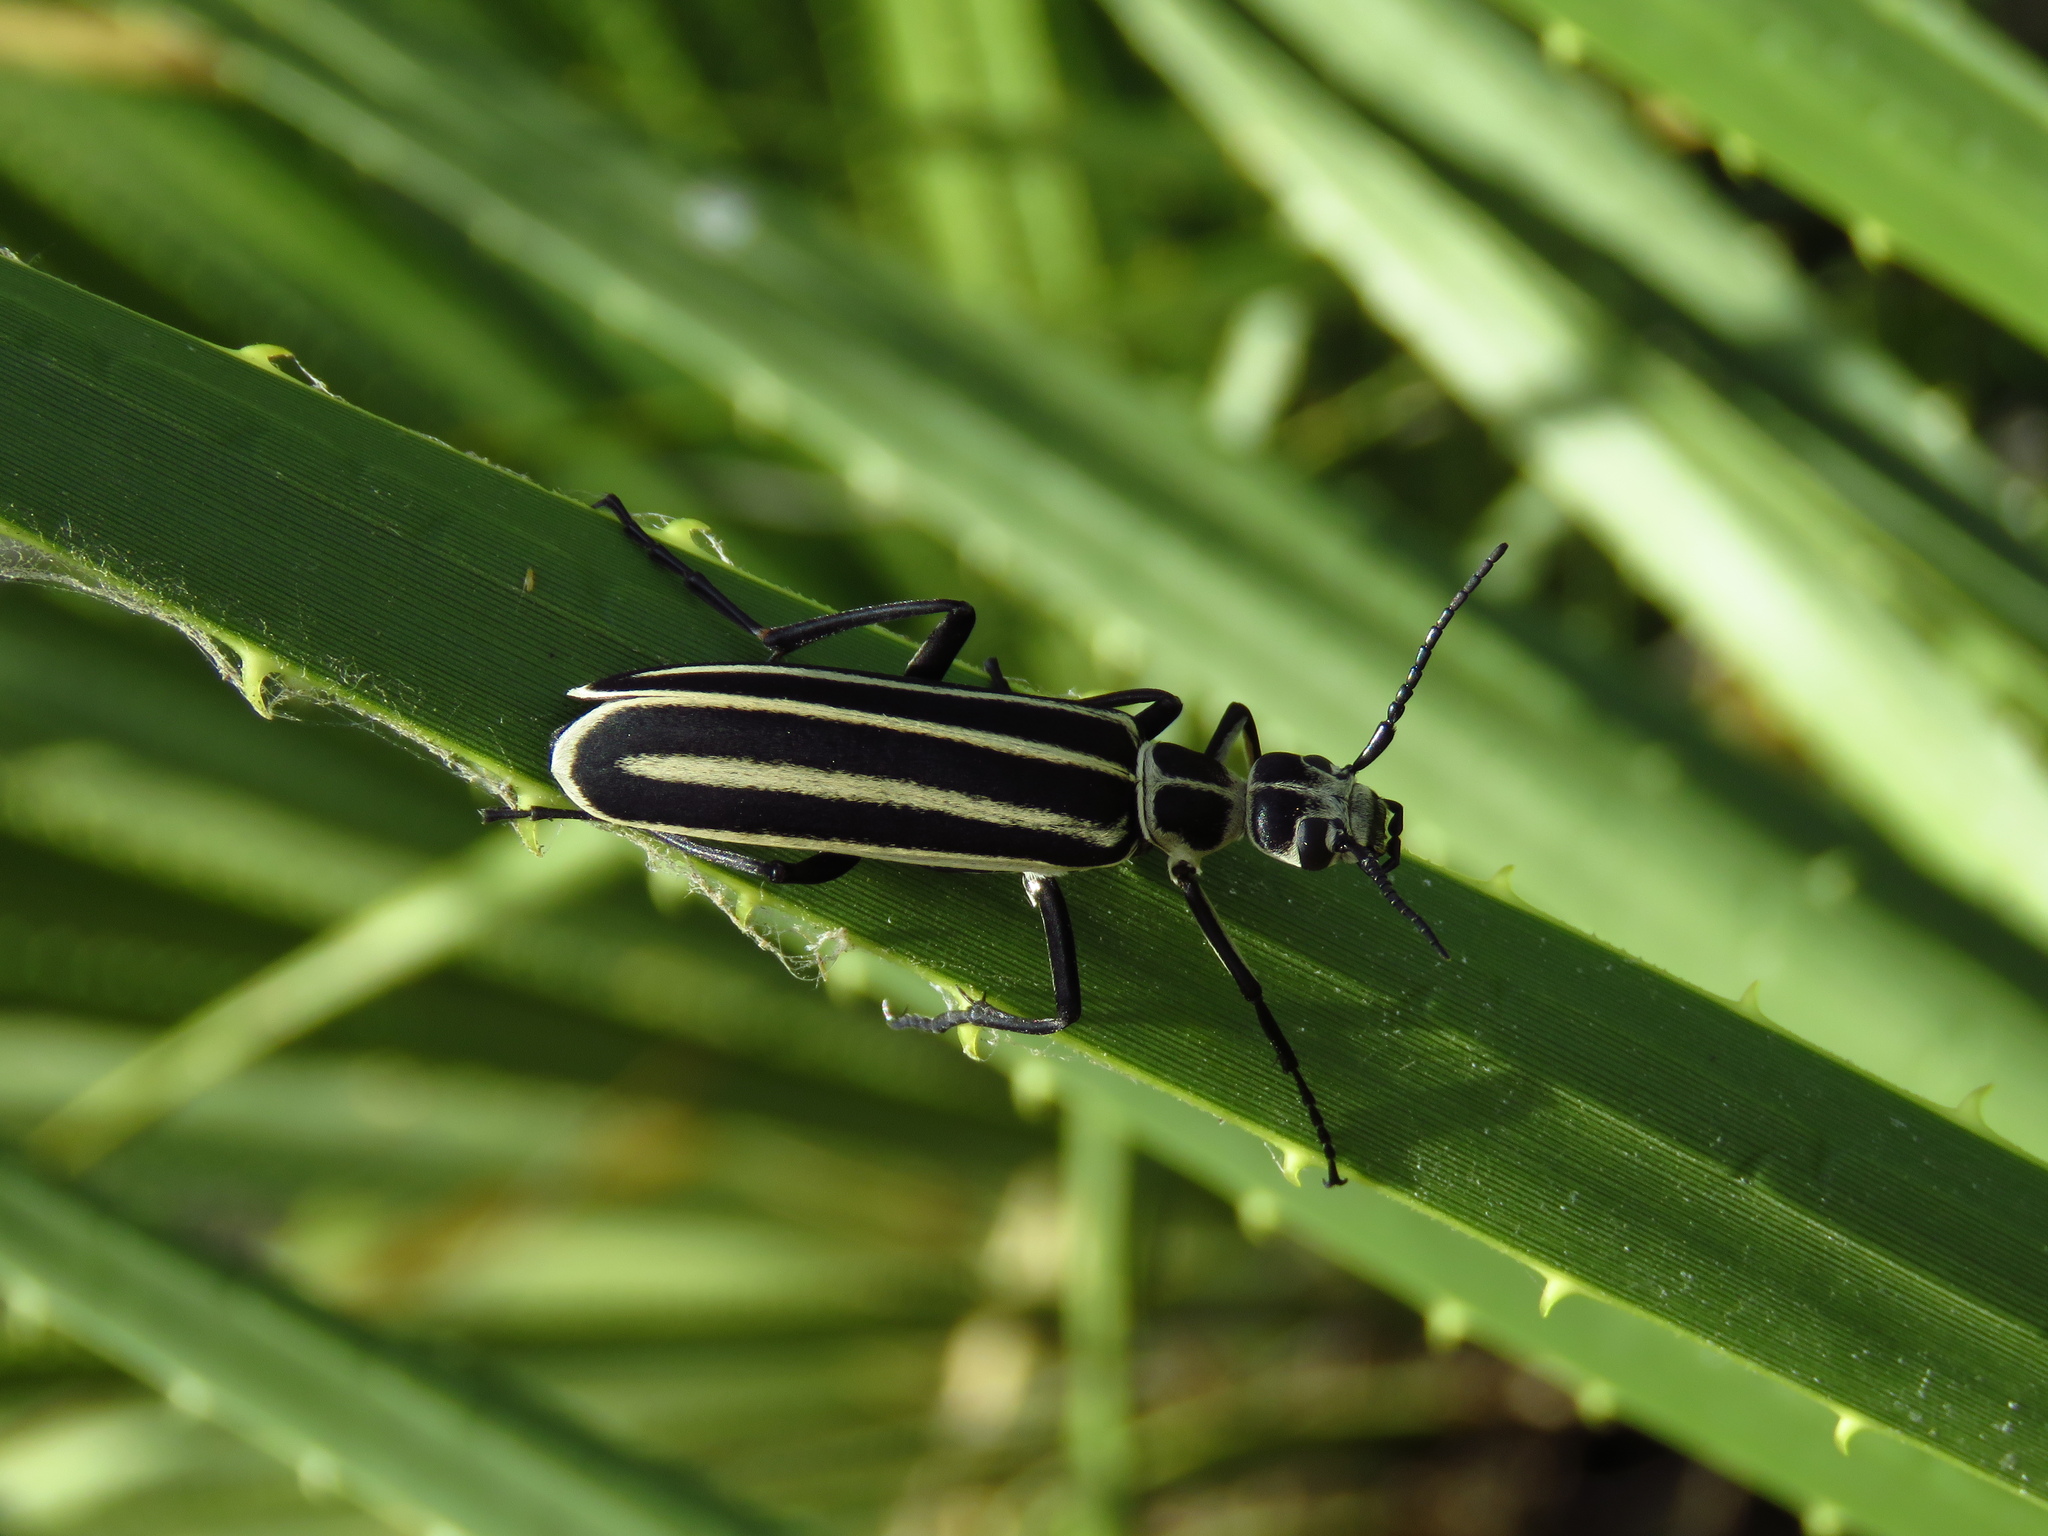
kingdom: Animalia
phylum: Arthropoda
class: Insecta
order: Coleoptera
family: Meloidae
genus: Epicauta
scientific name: Epicauta atrivittata
